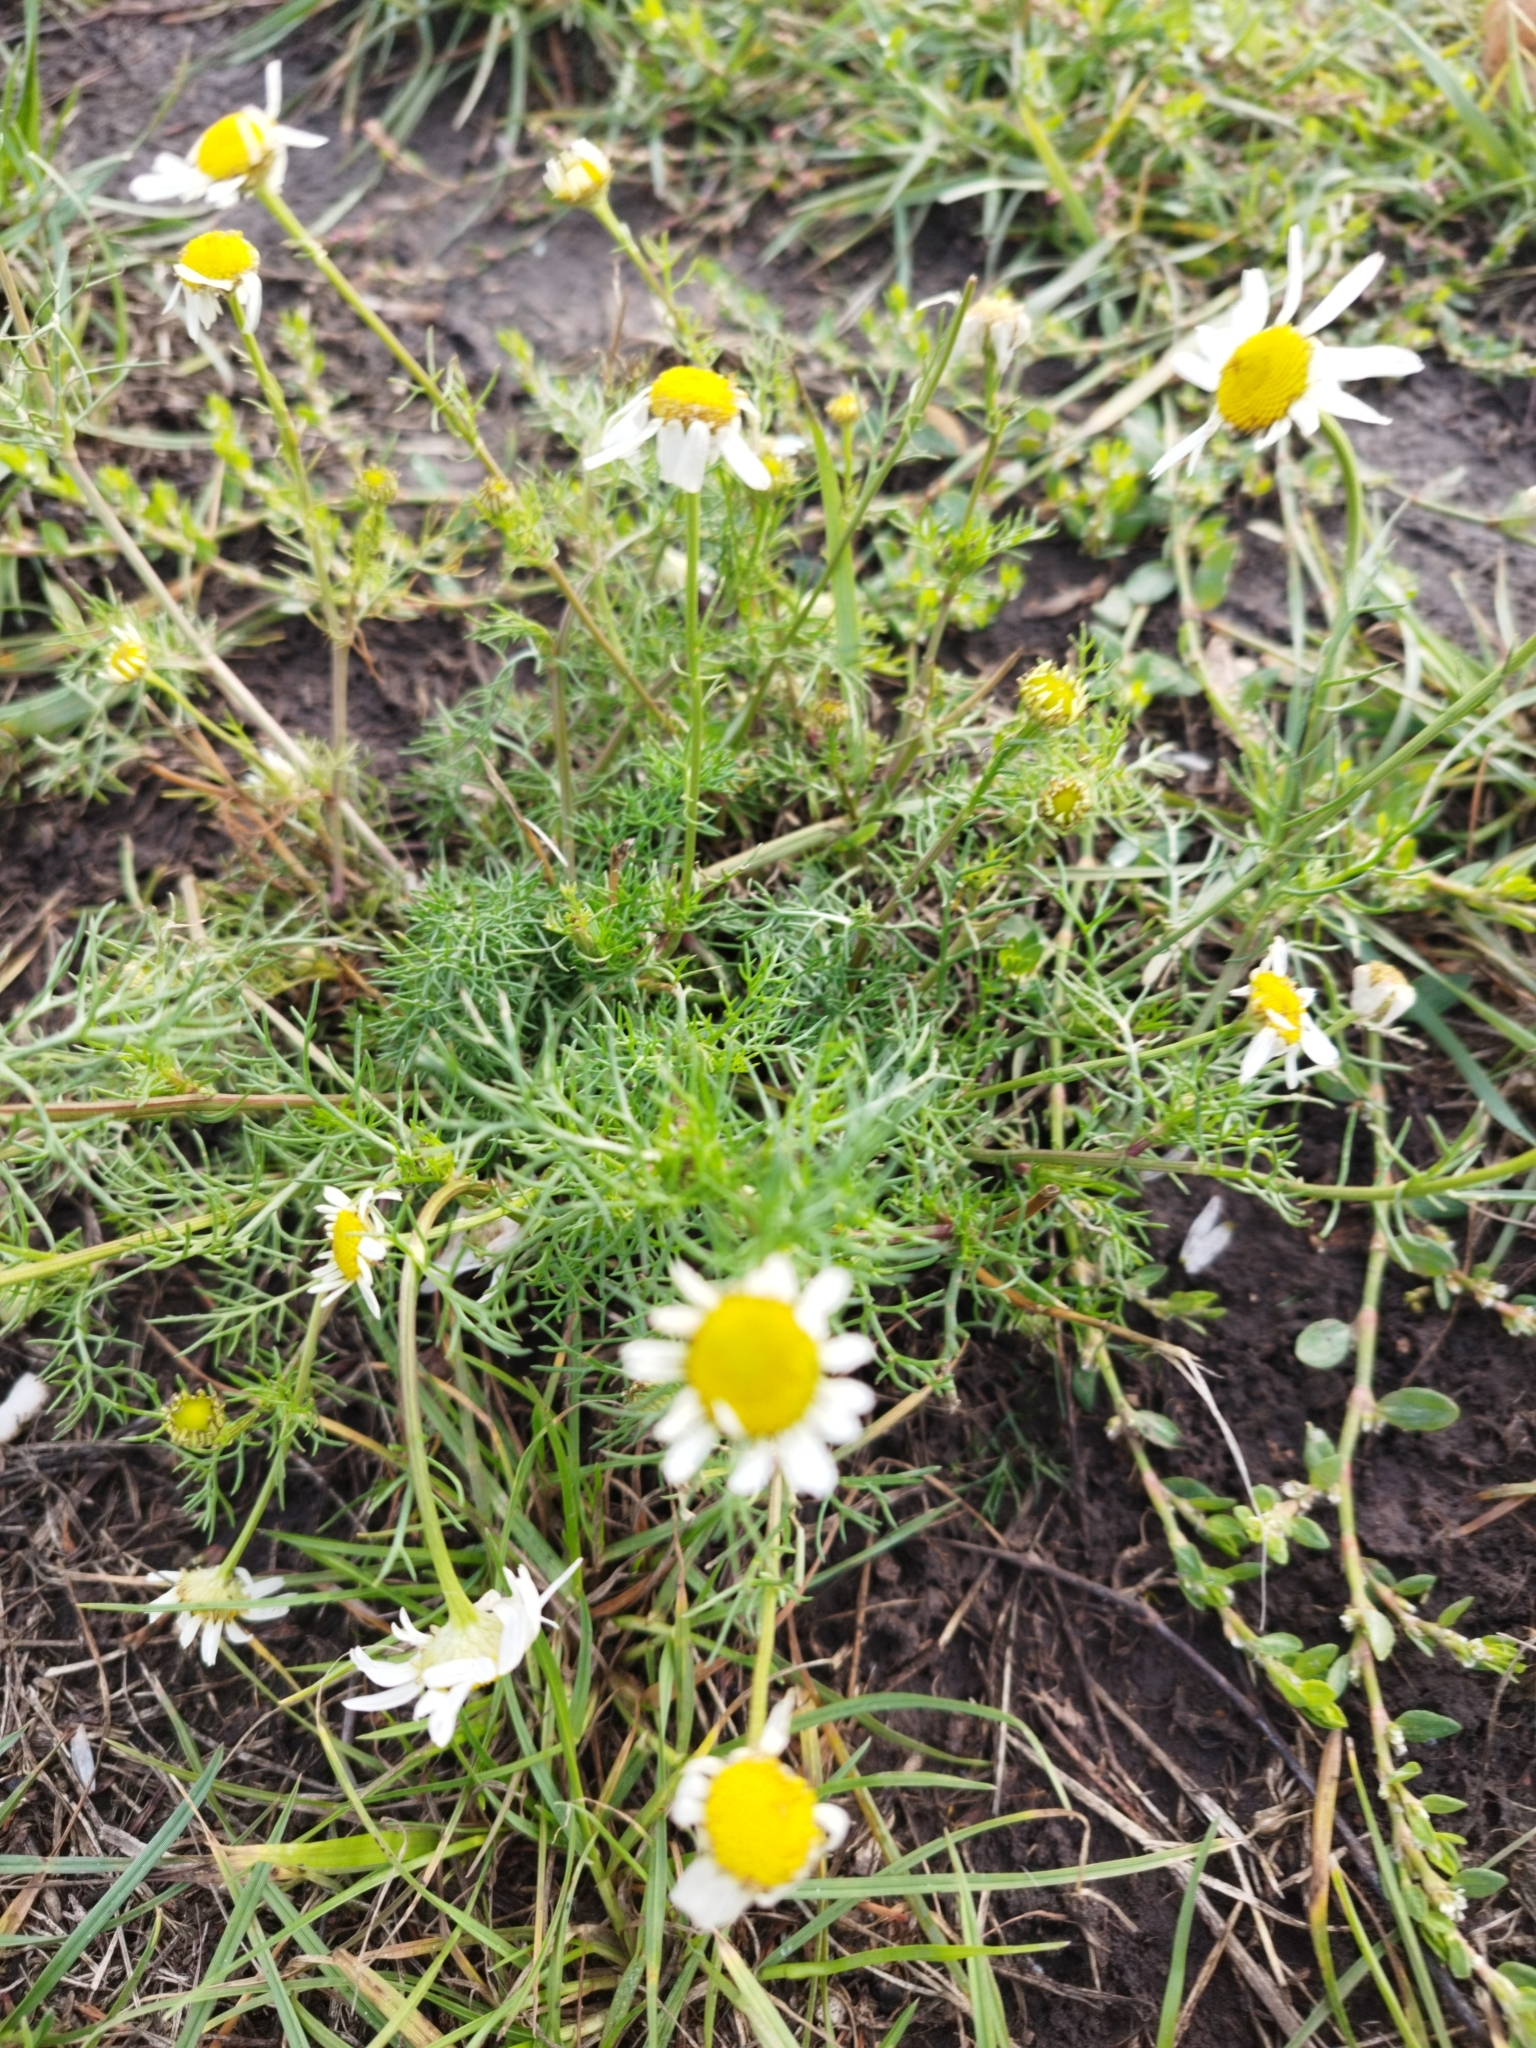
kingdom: Plantae
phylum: Tracheophyta
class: Magnoliopsida
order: Asterales
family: Asteraceae
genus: Tripleurospermum
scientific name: Tripleurospermum inodorum
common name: Scentless mayweed
